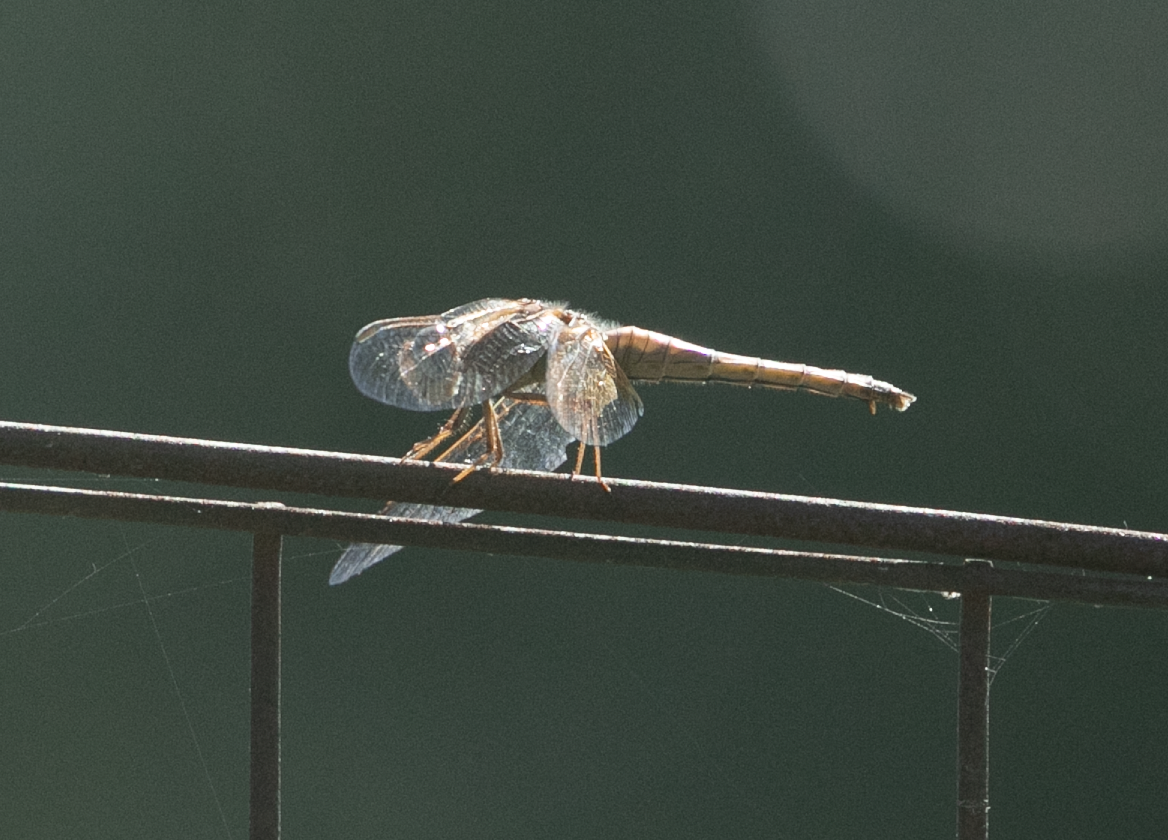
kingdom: Animalia
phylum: Arthropoda
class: Insecta
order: Odonata
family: Libellulidae
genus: Crocothemis
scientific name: Crocothemis erythraea
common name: Scarlet dragonfly
